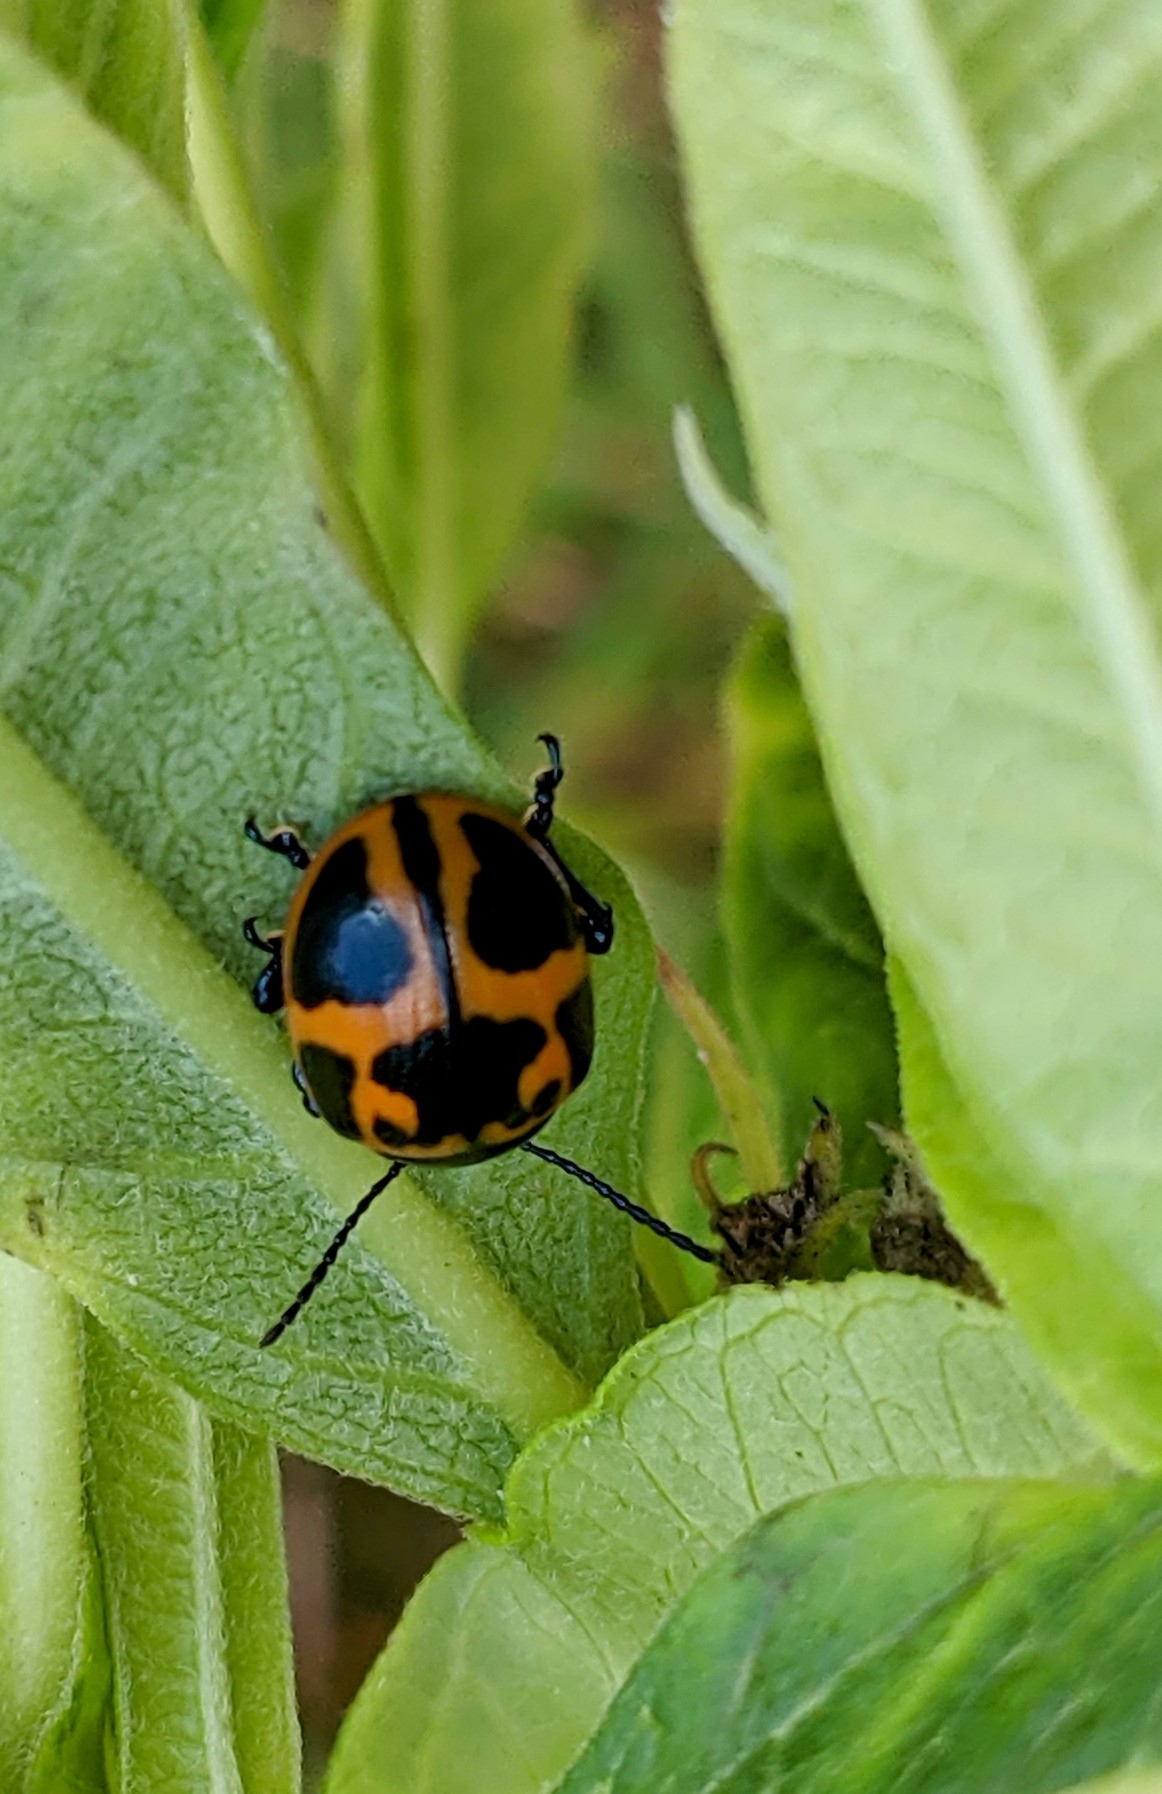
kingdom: Animalia
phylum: Arthropoda
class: Insecta
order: Coleoptera
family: Chrysomelidae
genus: Labidomera
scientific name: Labidomera clivicollis
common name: Swamp milkweed leaf beetle
